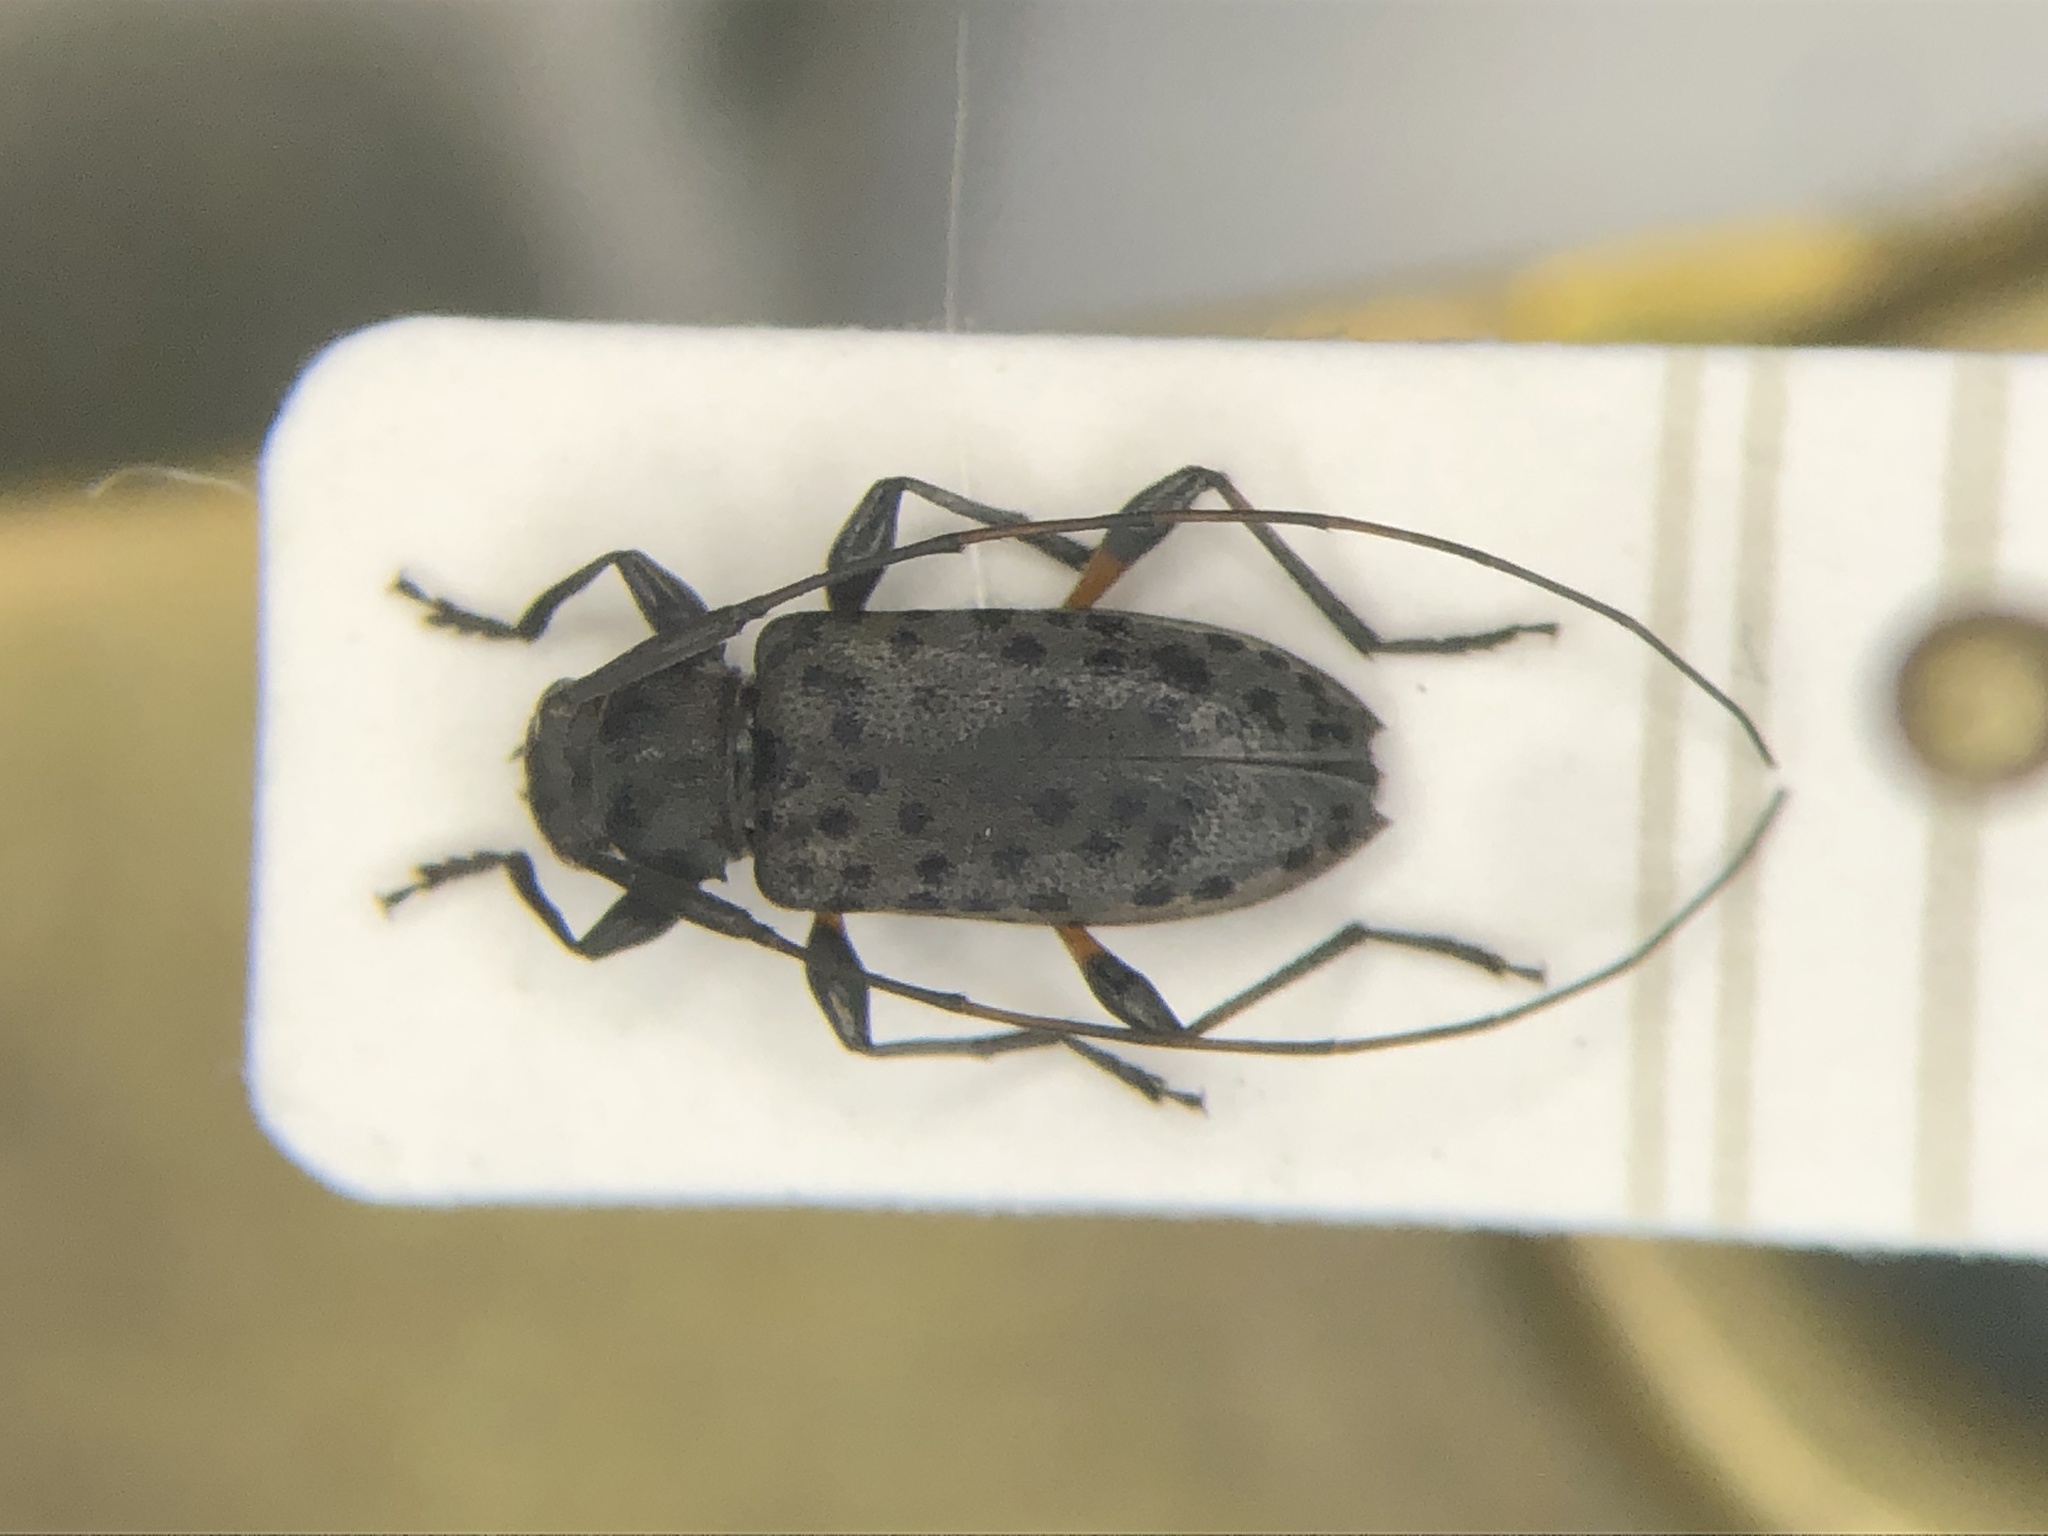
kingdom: Animalia
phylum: Arthropoda
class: Insecta
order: Coleoptera
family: Cerambycidae
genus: Hyperplatys
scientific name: Hyperplatys aspersa
